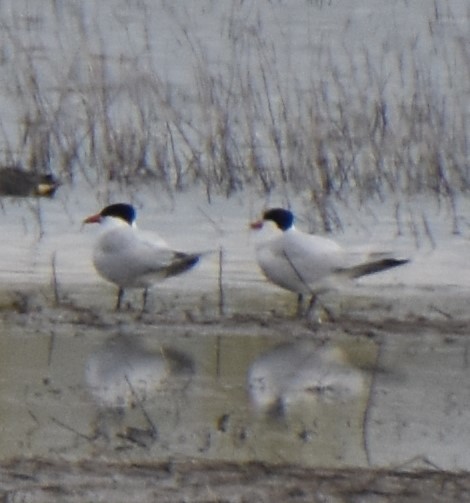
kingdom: Animalia
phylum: Chordata
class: Aves
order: Charadriiformes
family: Laridae
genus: Hydroprogne
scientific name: Hydroprogne caspia
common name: Caspian tern
